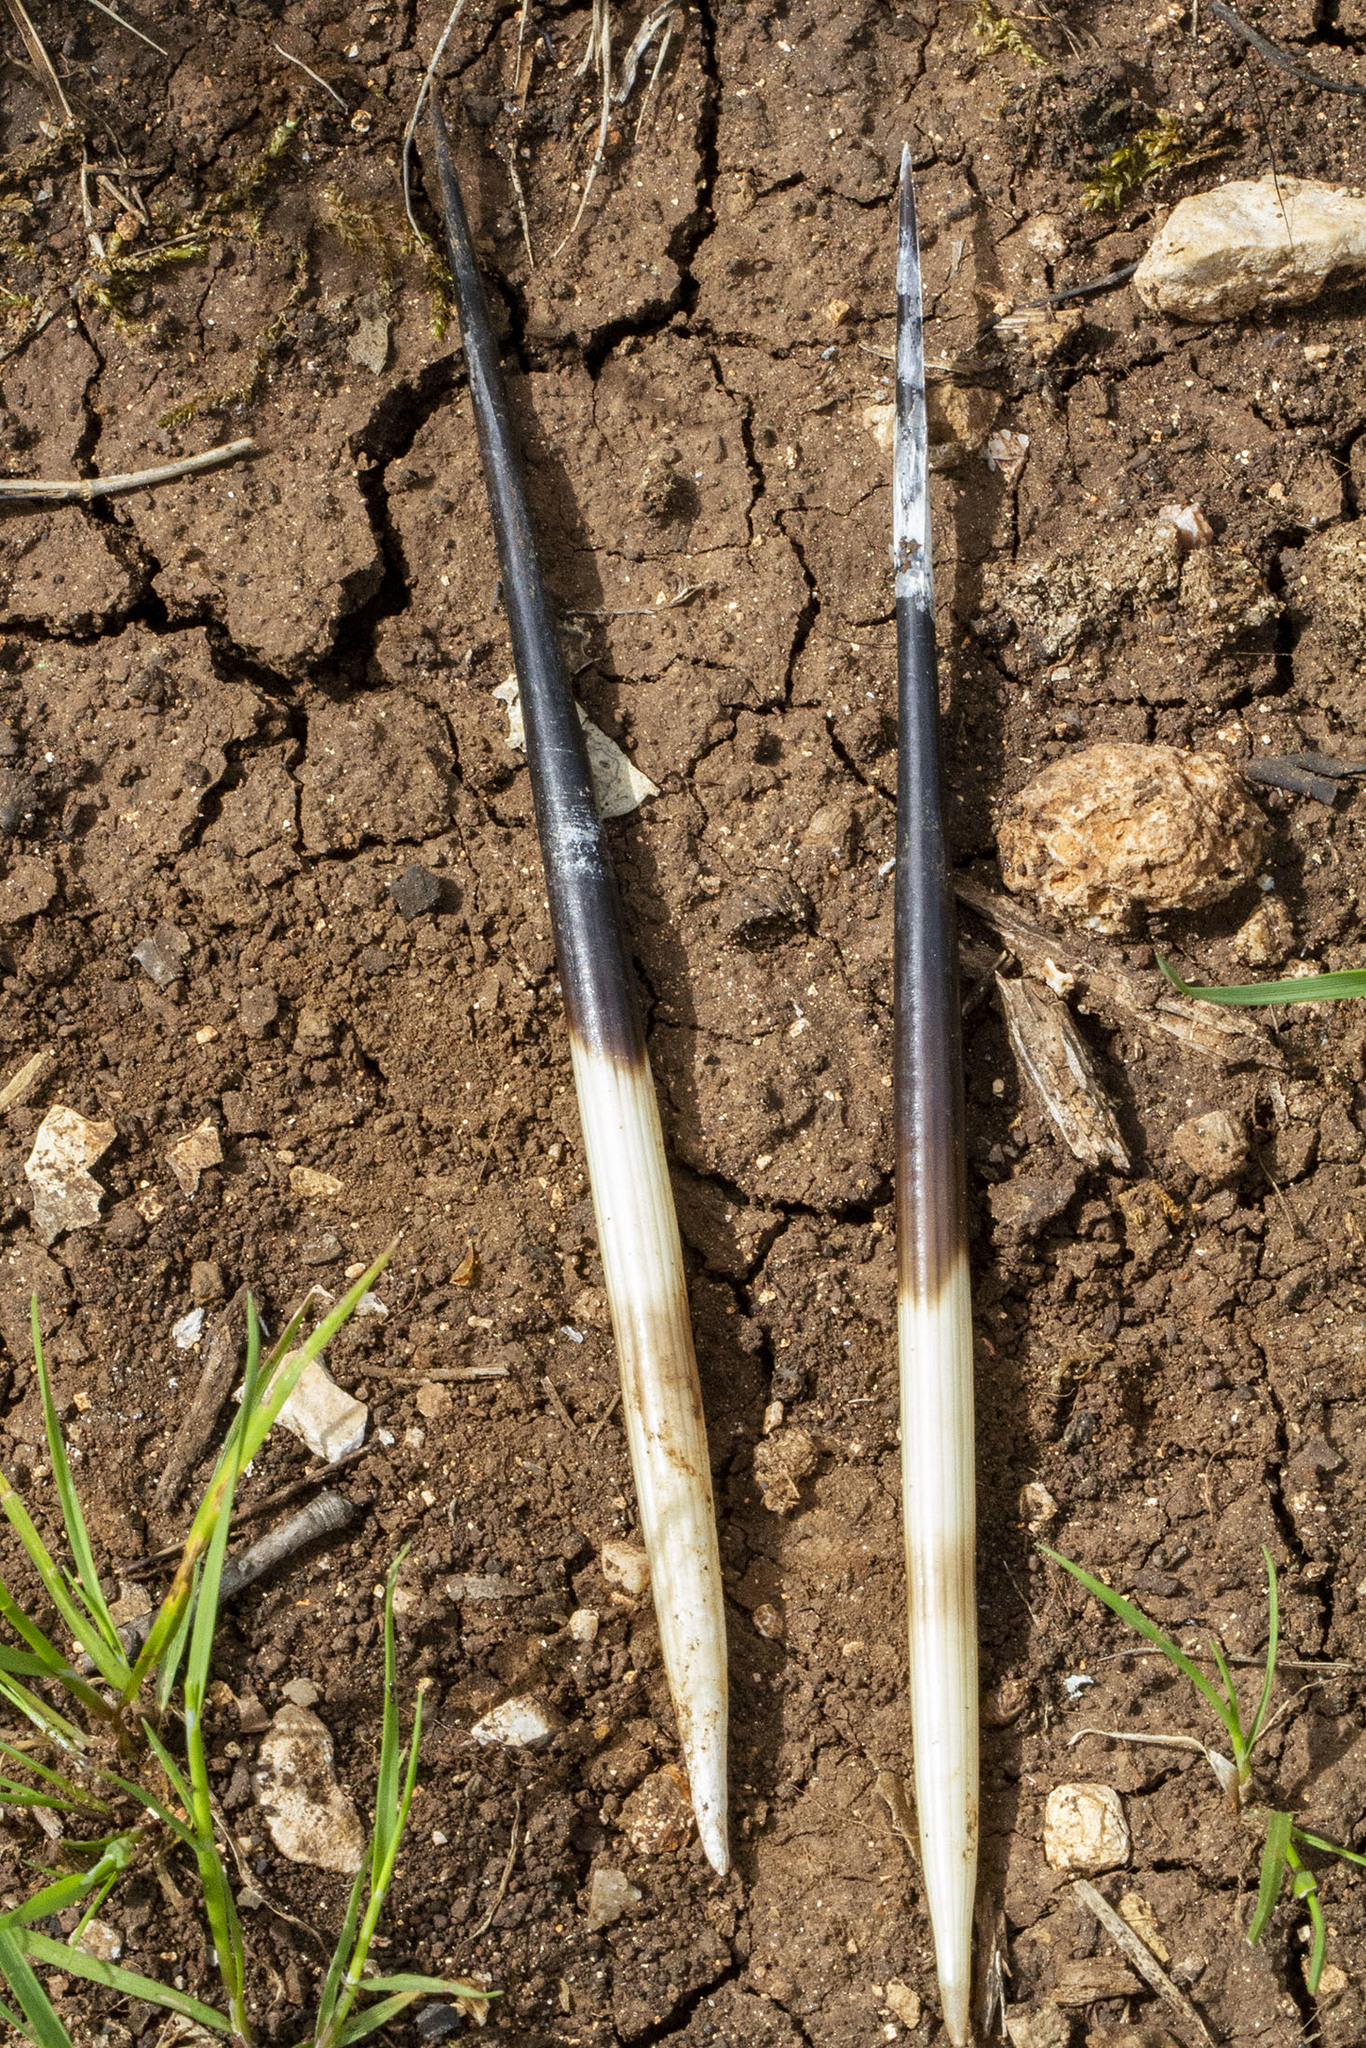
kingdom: Animalia
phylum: Chordata
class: Mammalia
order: Rodentia
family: Hystricidae
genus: Hystrix
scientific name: Hystrix indica
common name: Indian crested porcupine
